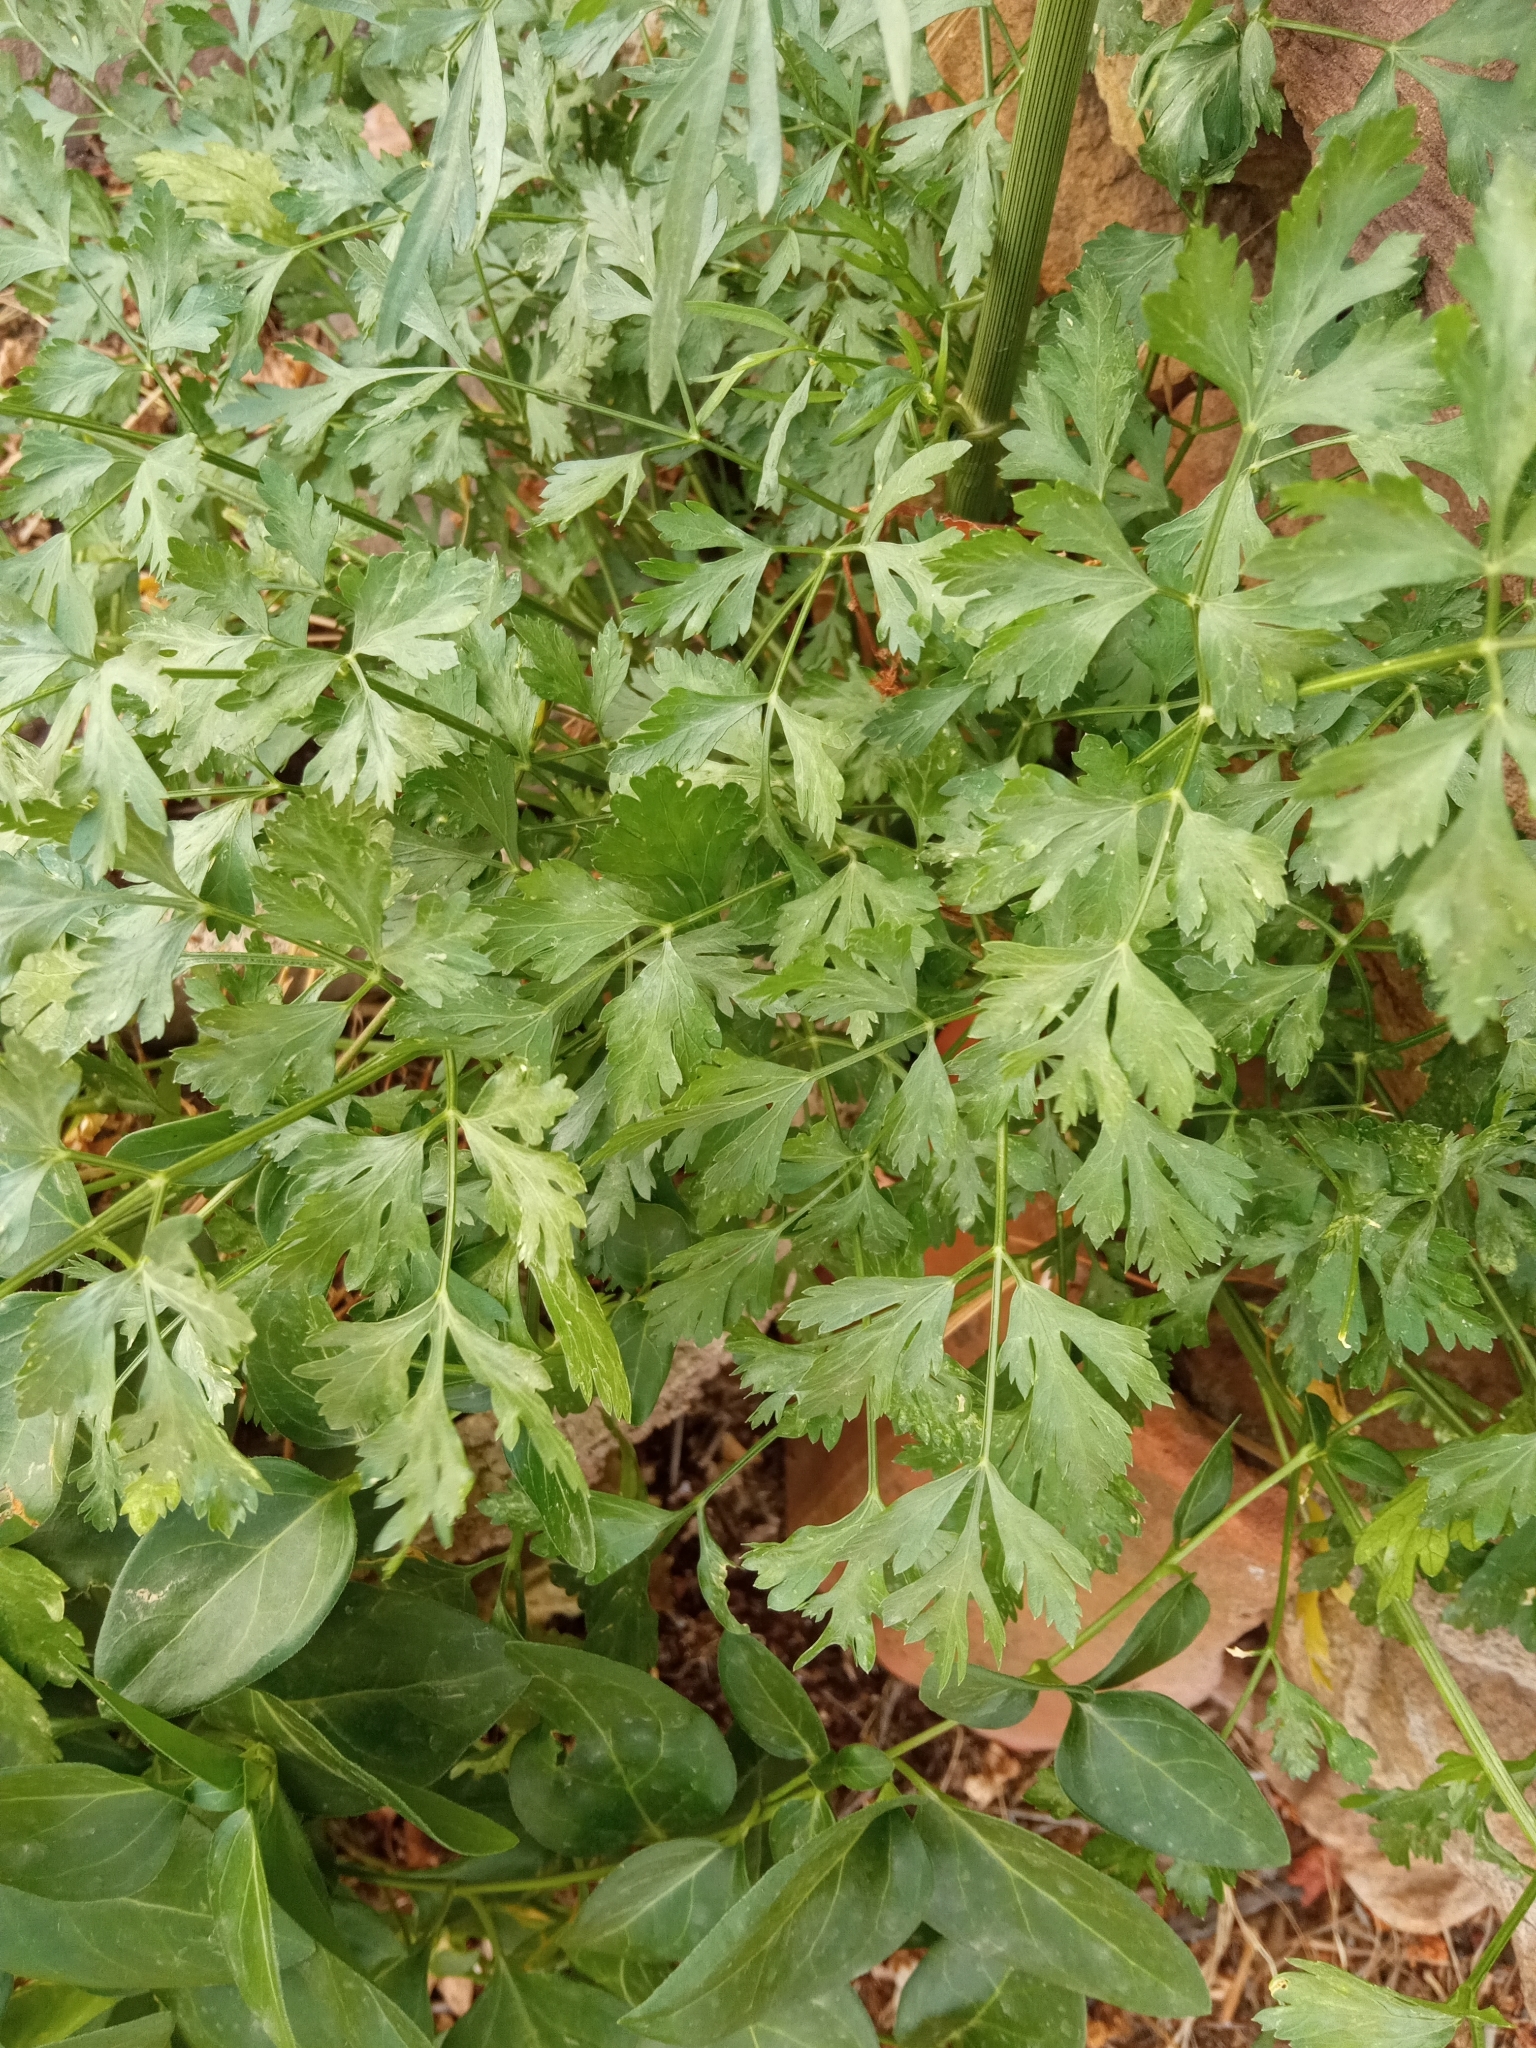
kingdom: Plantae
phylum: Tracheophyta
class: Magnoliopsida
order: Apiales
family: Apiaceae
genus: Petroselinum
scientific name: Petroselinum crispum
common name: Parsley
